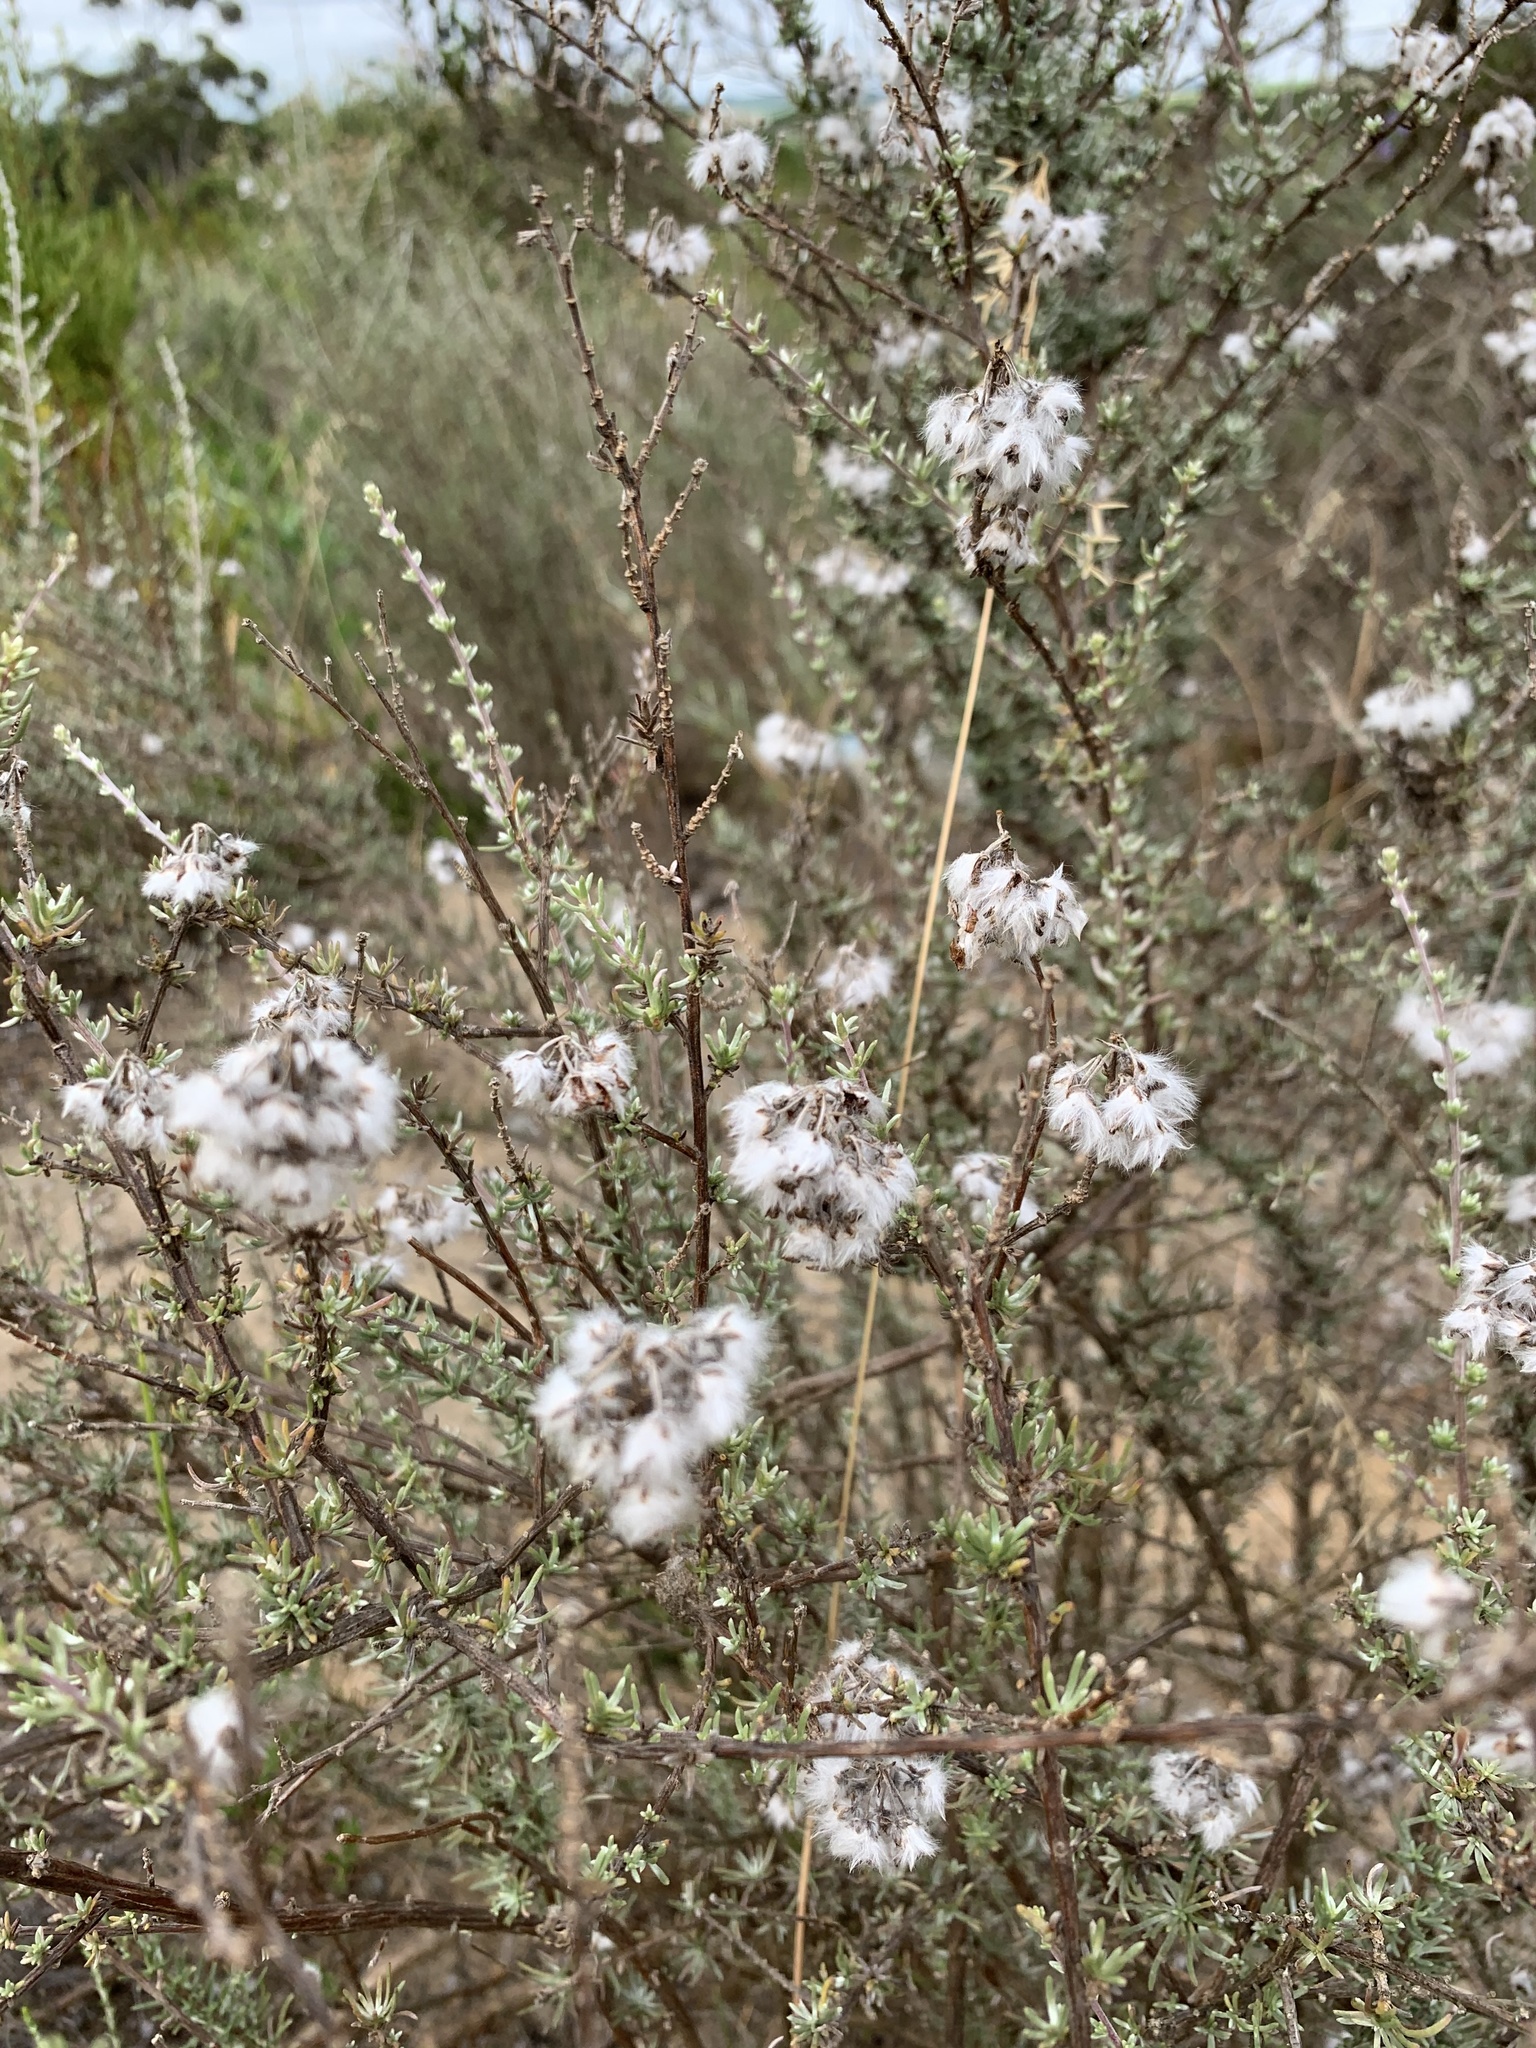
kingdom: Plantae
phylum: Tracheophyta
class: Magnoliopsida
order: Asterales
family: Asteraceae
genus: Eriocephalus
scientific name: Eriocephalus africanus
